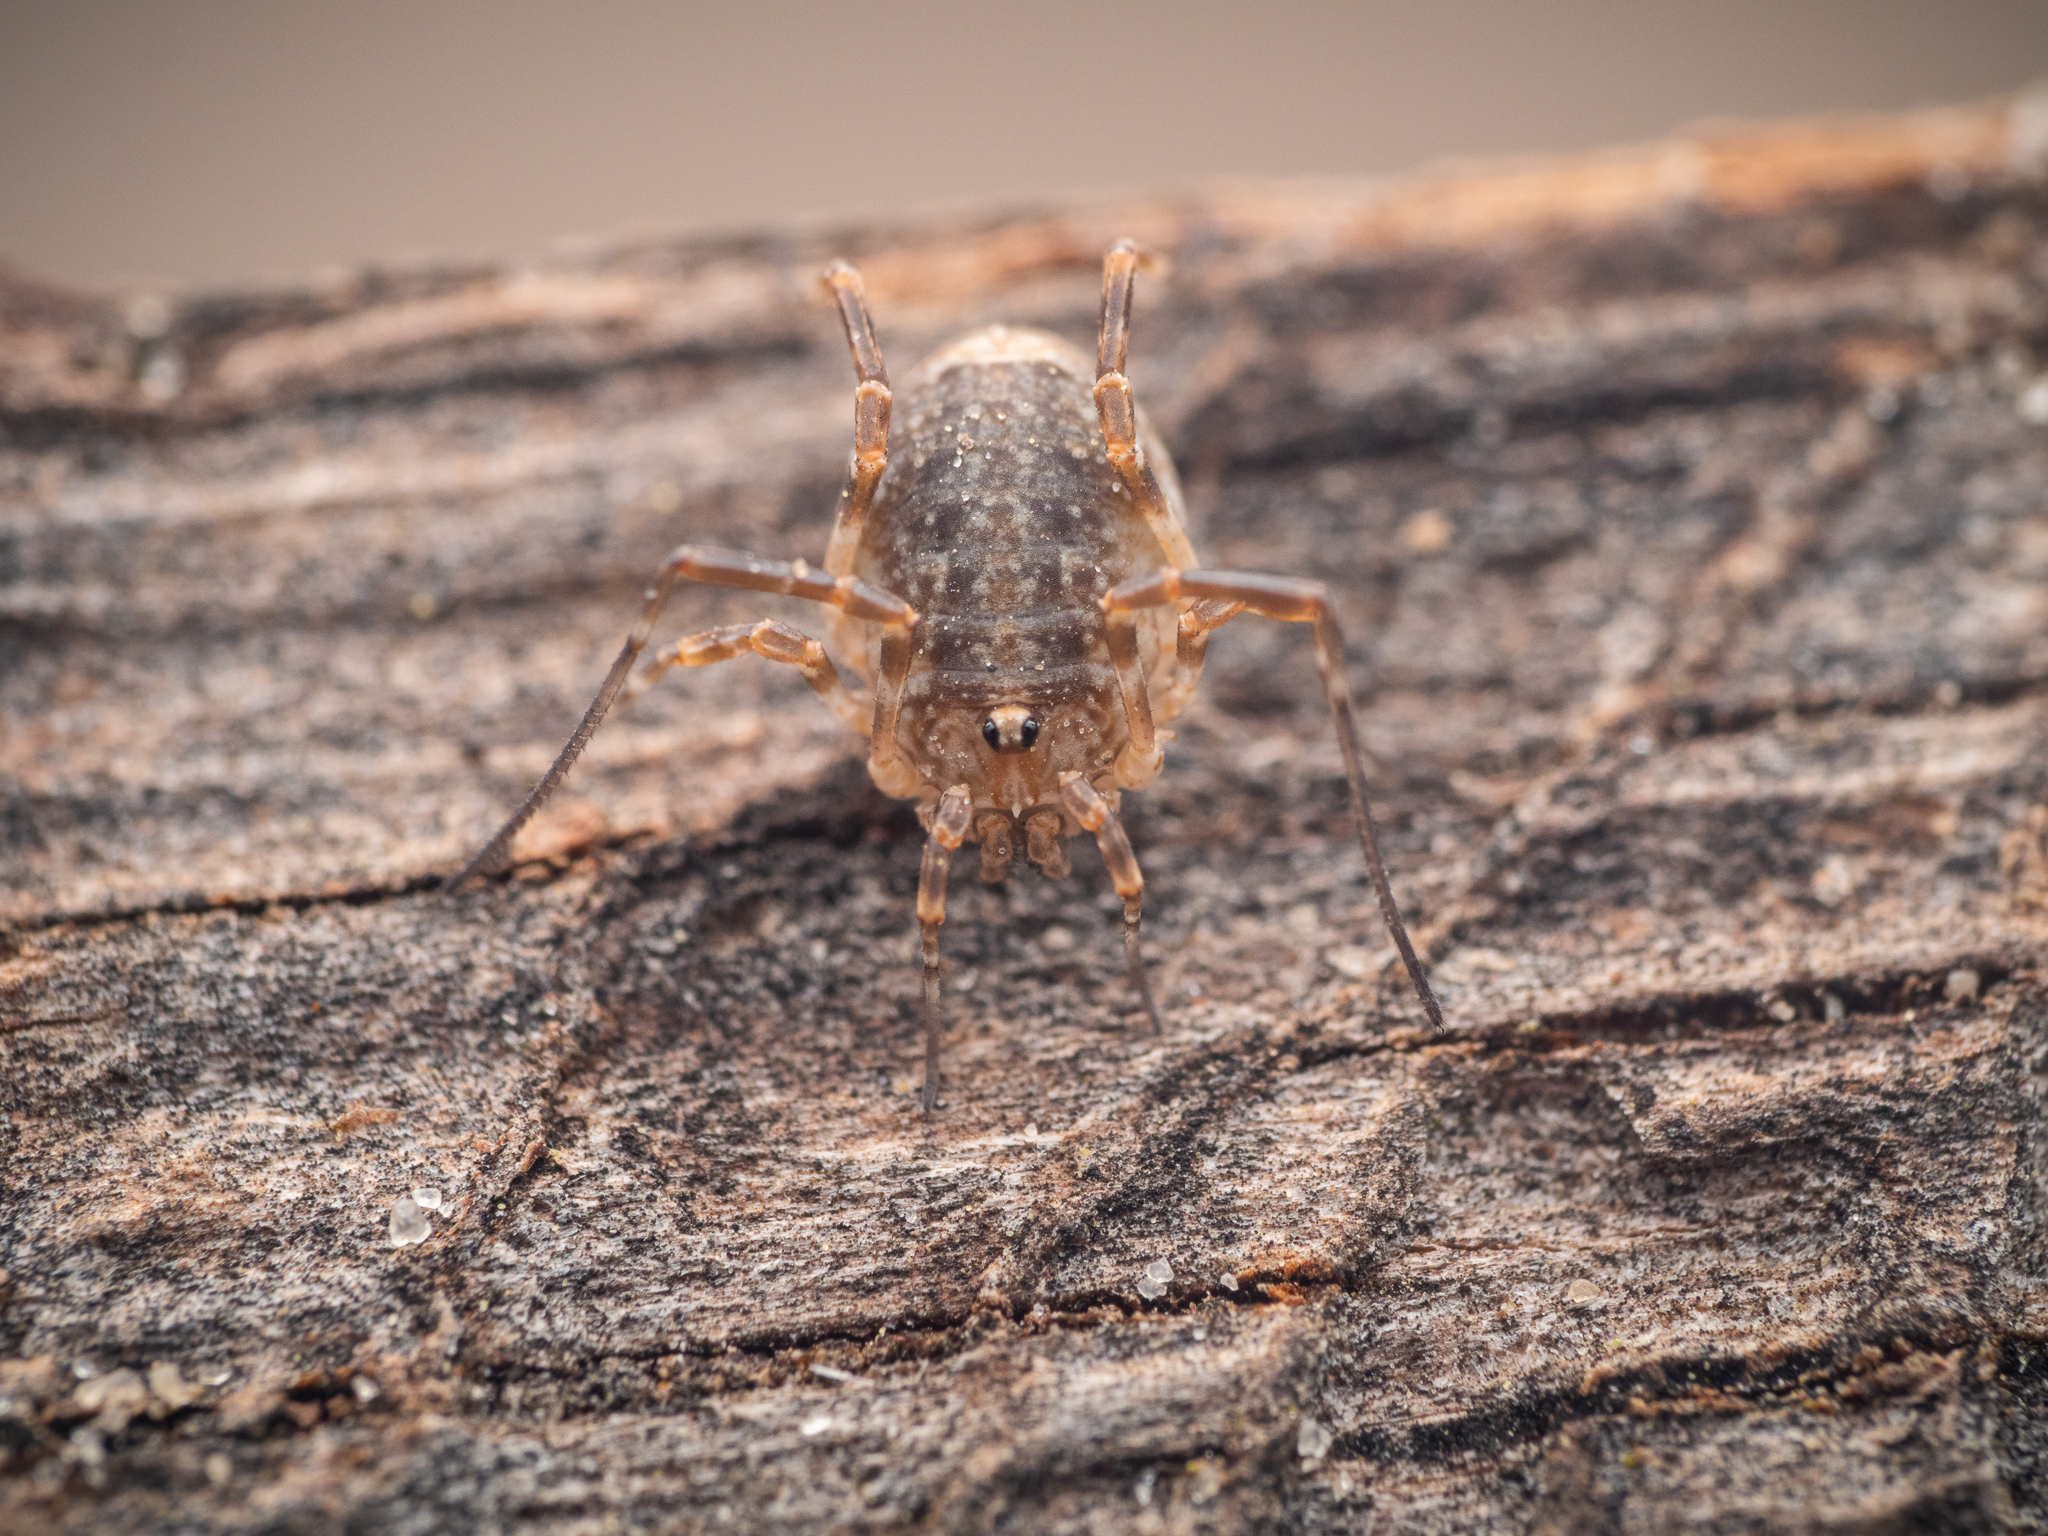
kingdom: Animalia
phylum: Arthropoda
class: Arachnida
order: Opiliones
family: Phalangiidae
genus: Odiellus
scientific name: Odiellus spinosus
